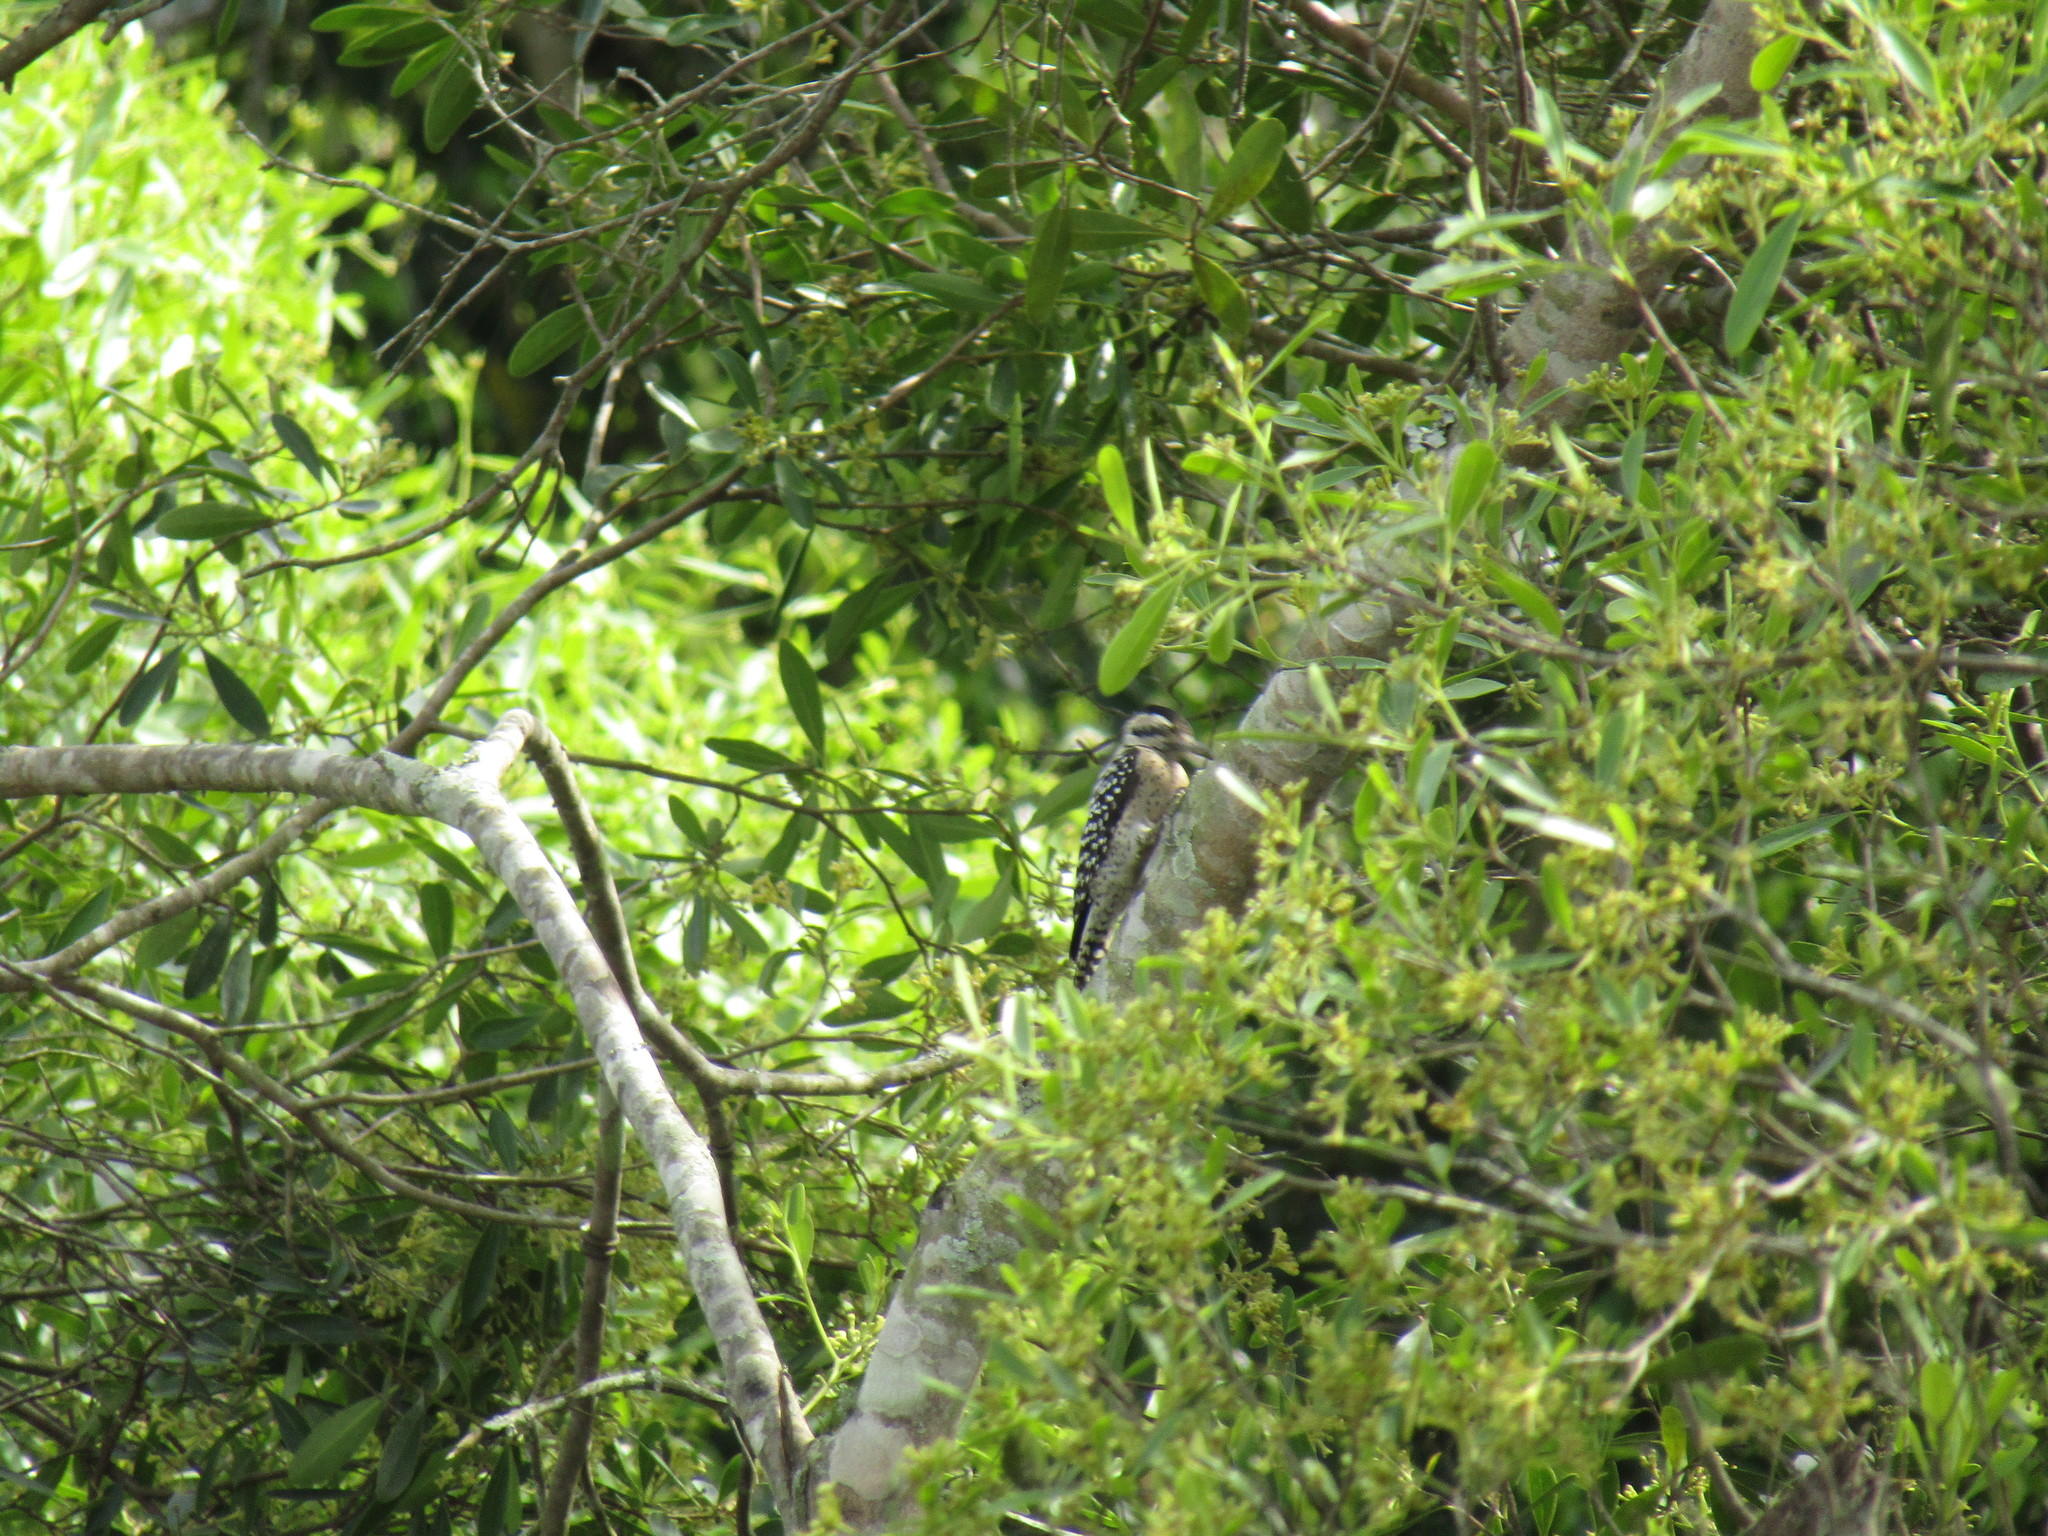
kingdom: Animalia
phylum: Chordata
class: Aves
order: Piciformes
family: Picidae
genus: Dryobates
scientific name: Dryobates scalaris
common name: Ladder-backed woodpecker
